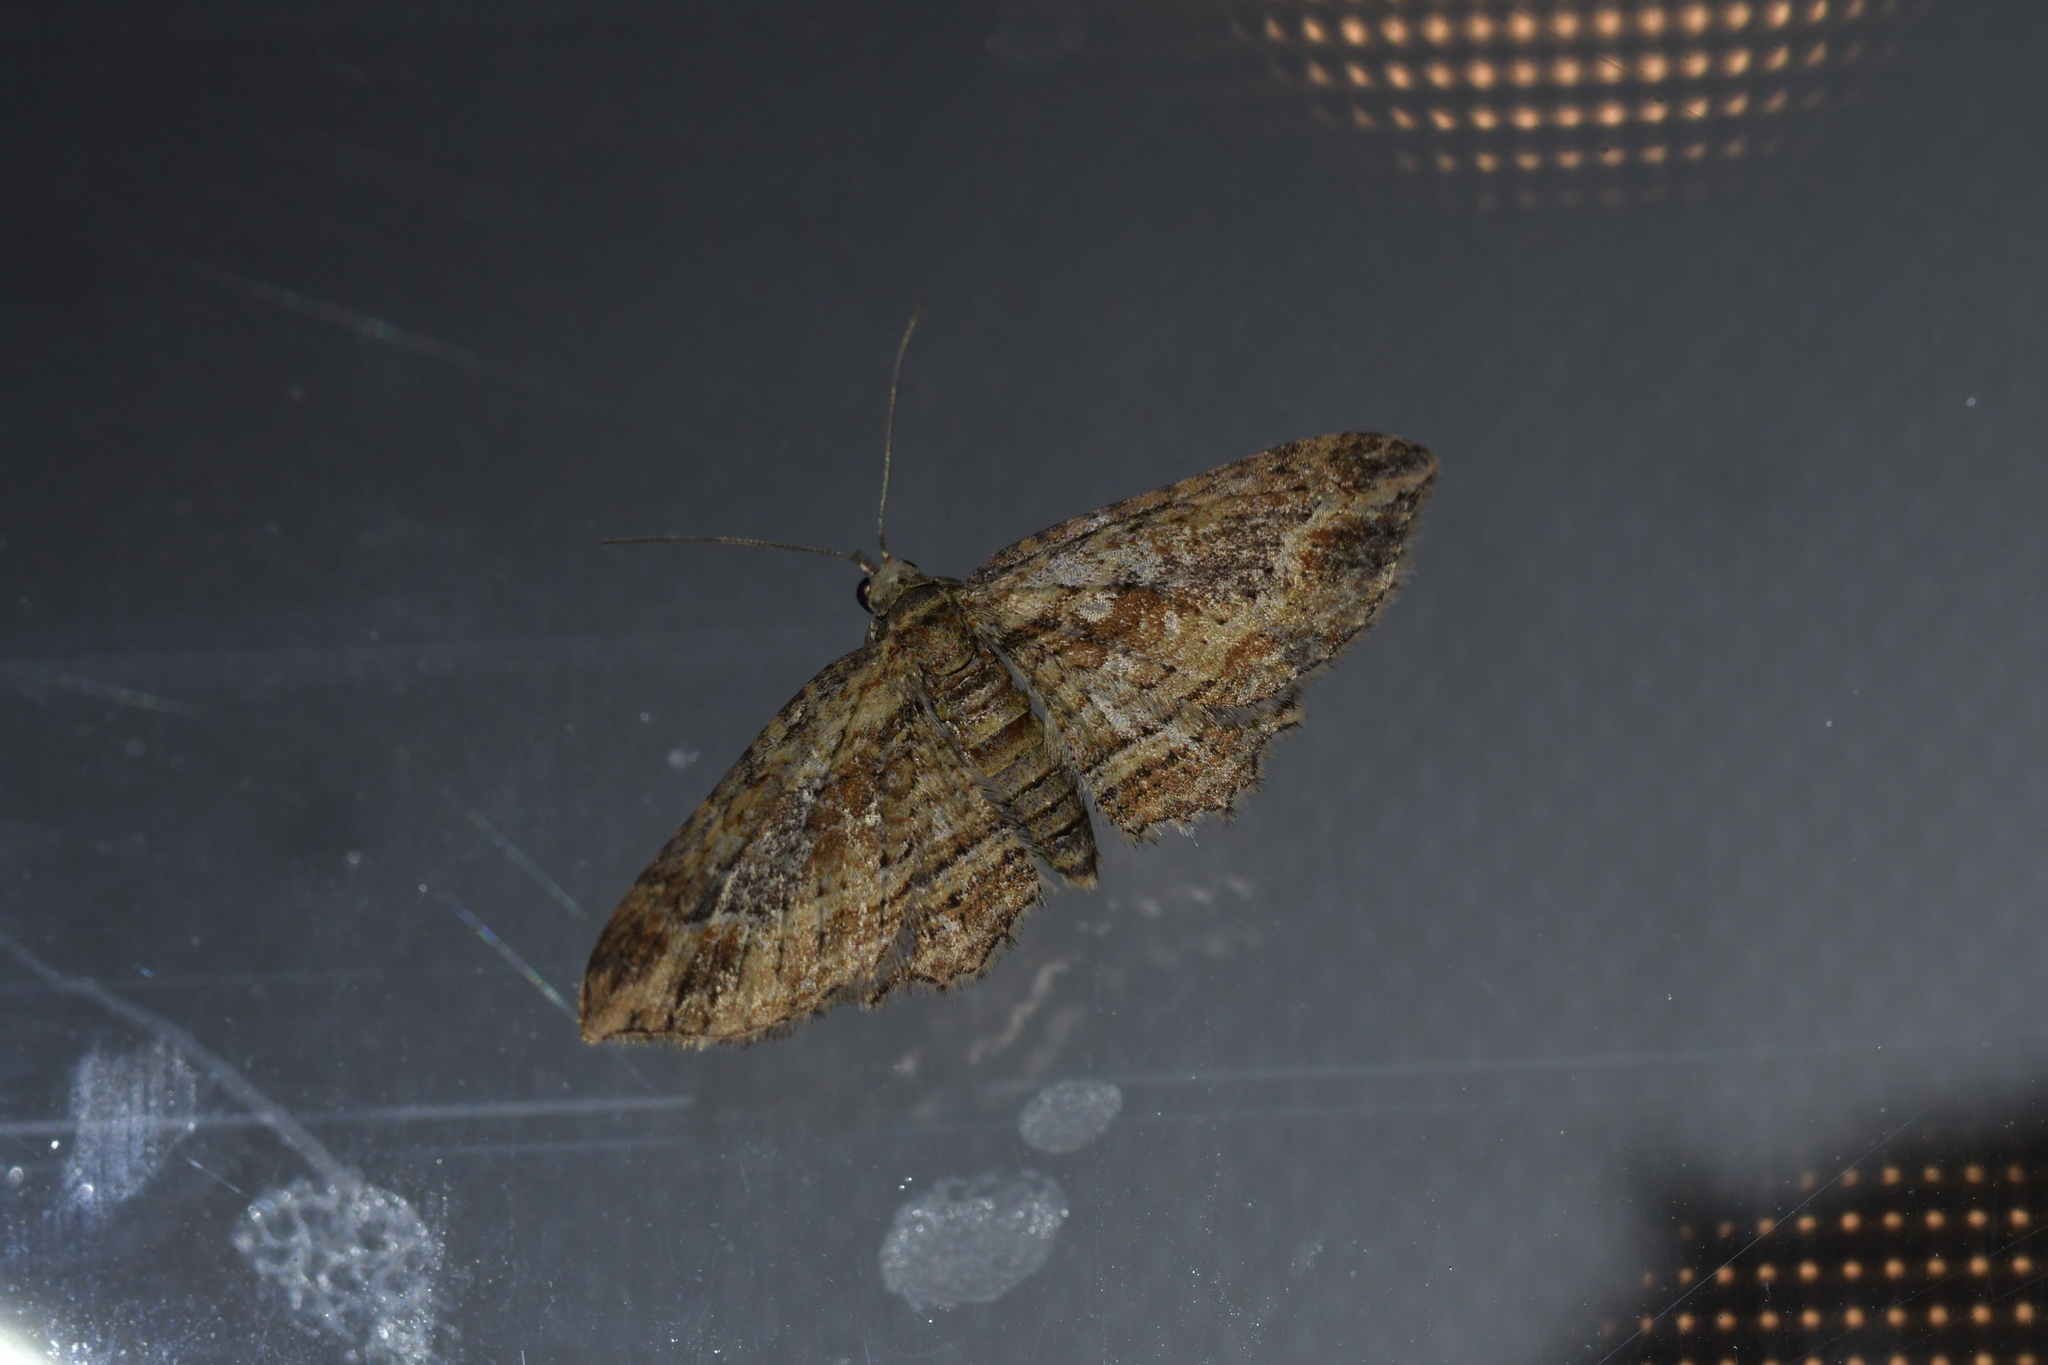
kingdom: Animalia
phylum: Arthropoda
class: Insecta
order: Lepidoptera
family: Geometridae
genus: Chloroclystis
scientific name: Chloroclystis filata
